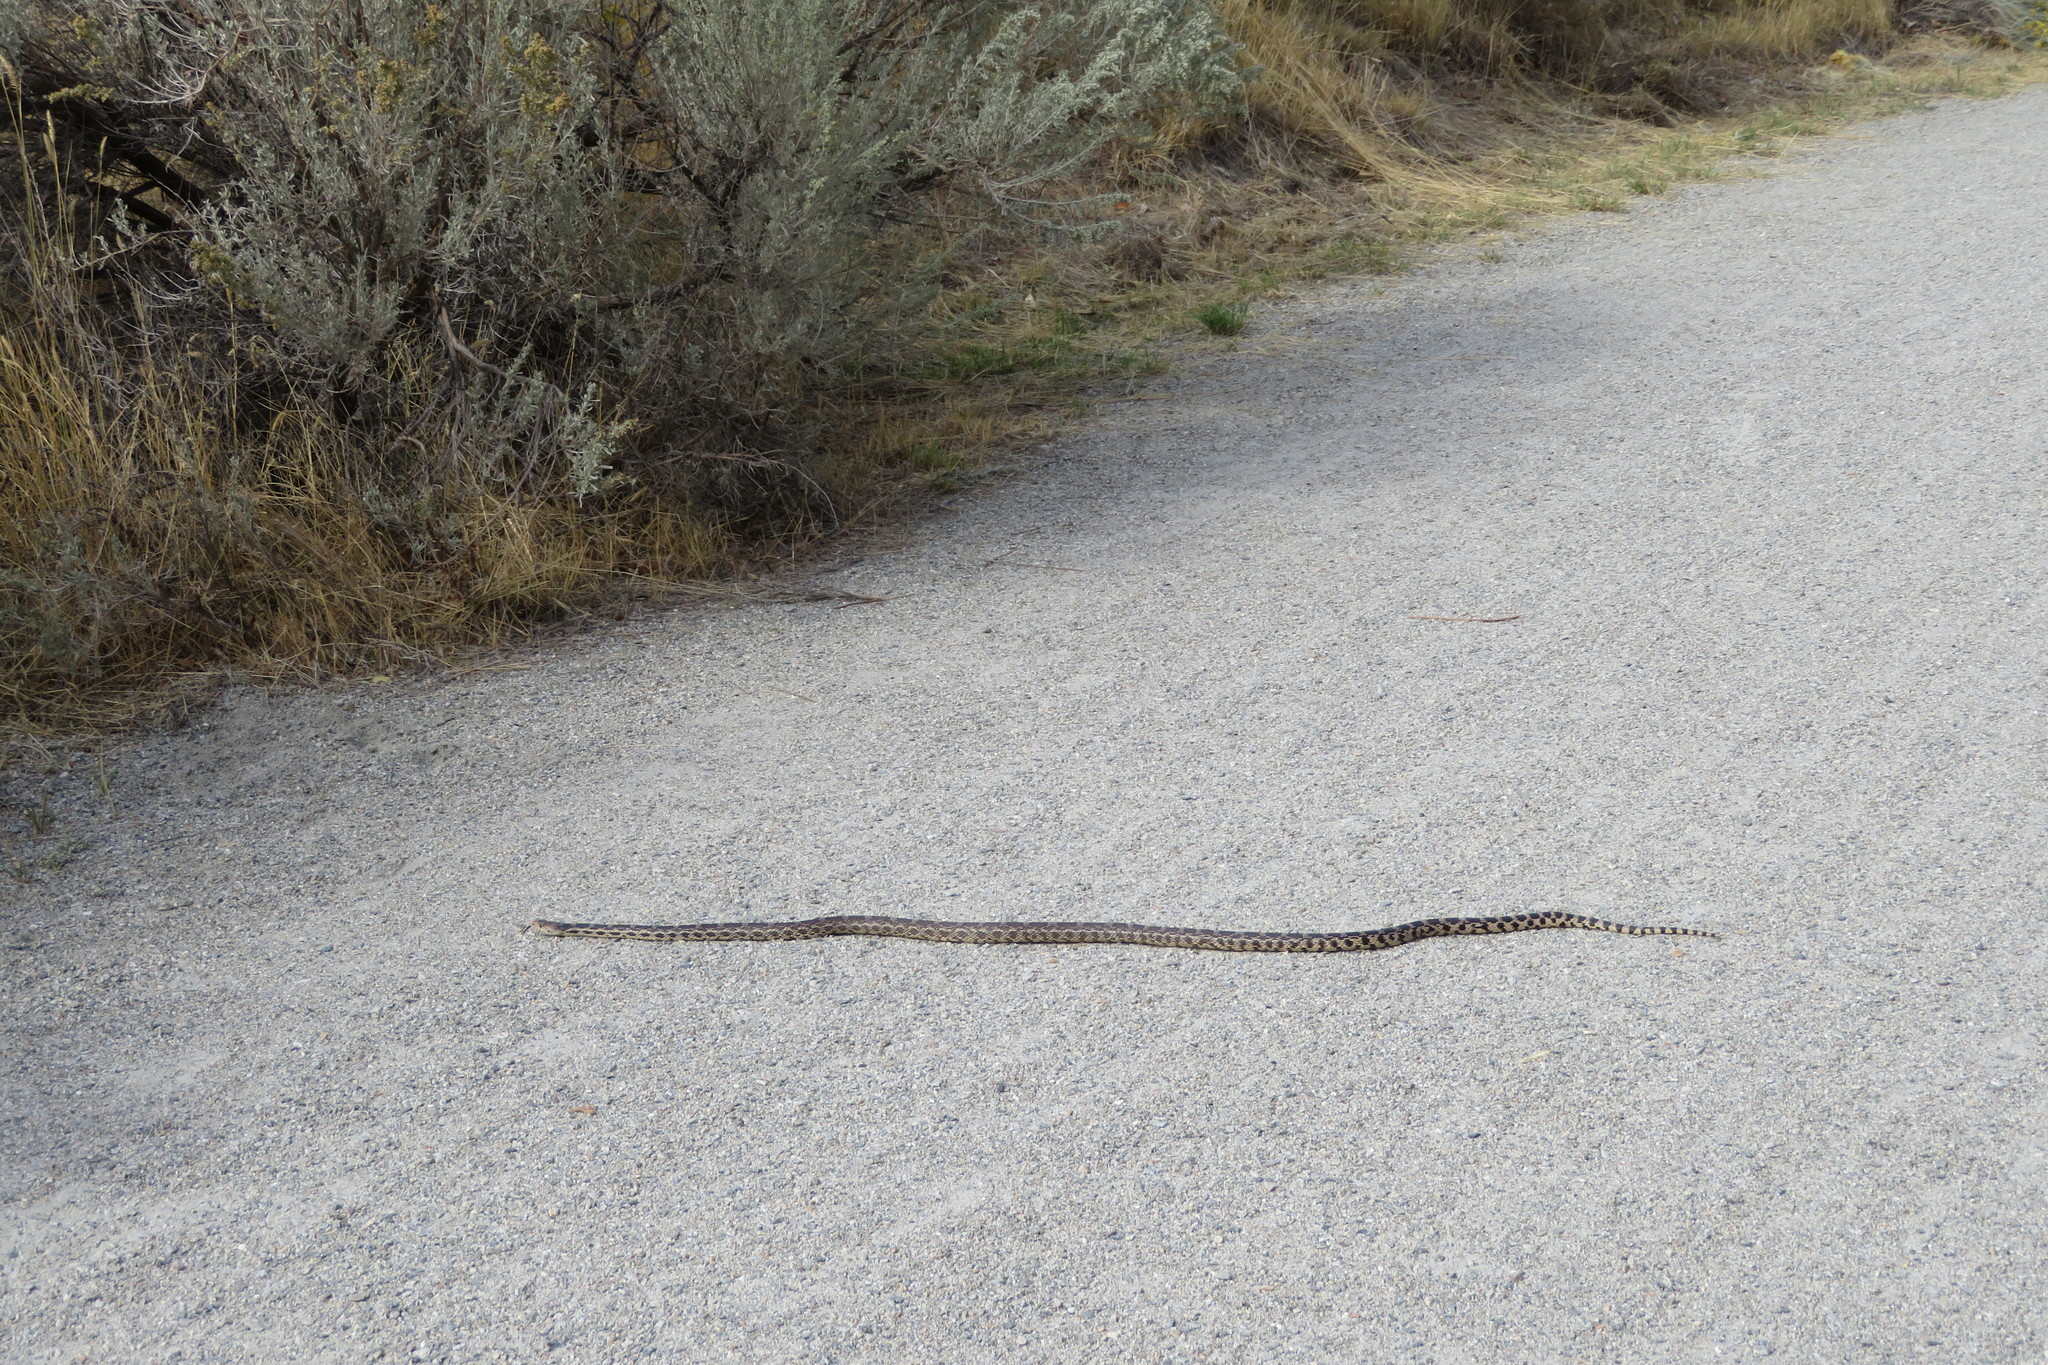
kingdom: Animalia
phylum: Chordata
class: Squamata
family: Colubridae
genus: Pituophis
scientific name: Pituophis catenifer
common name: Gopher snake
